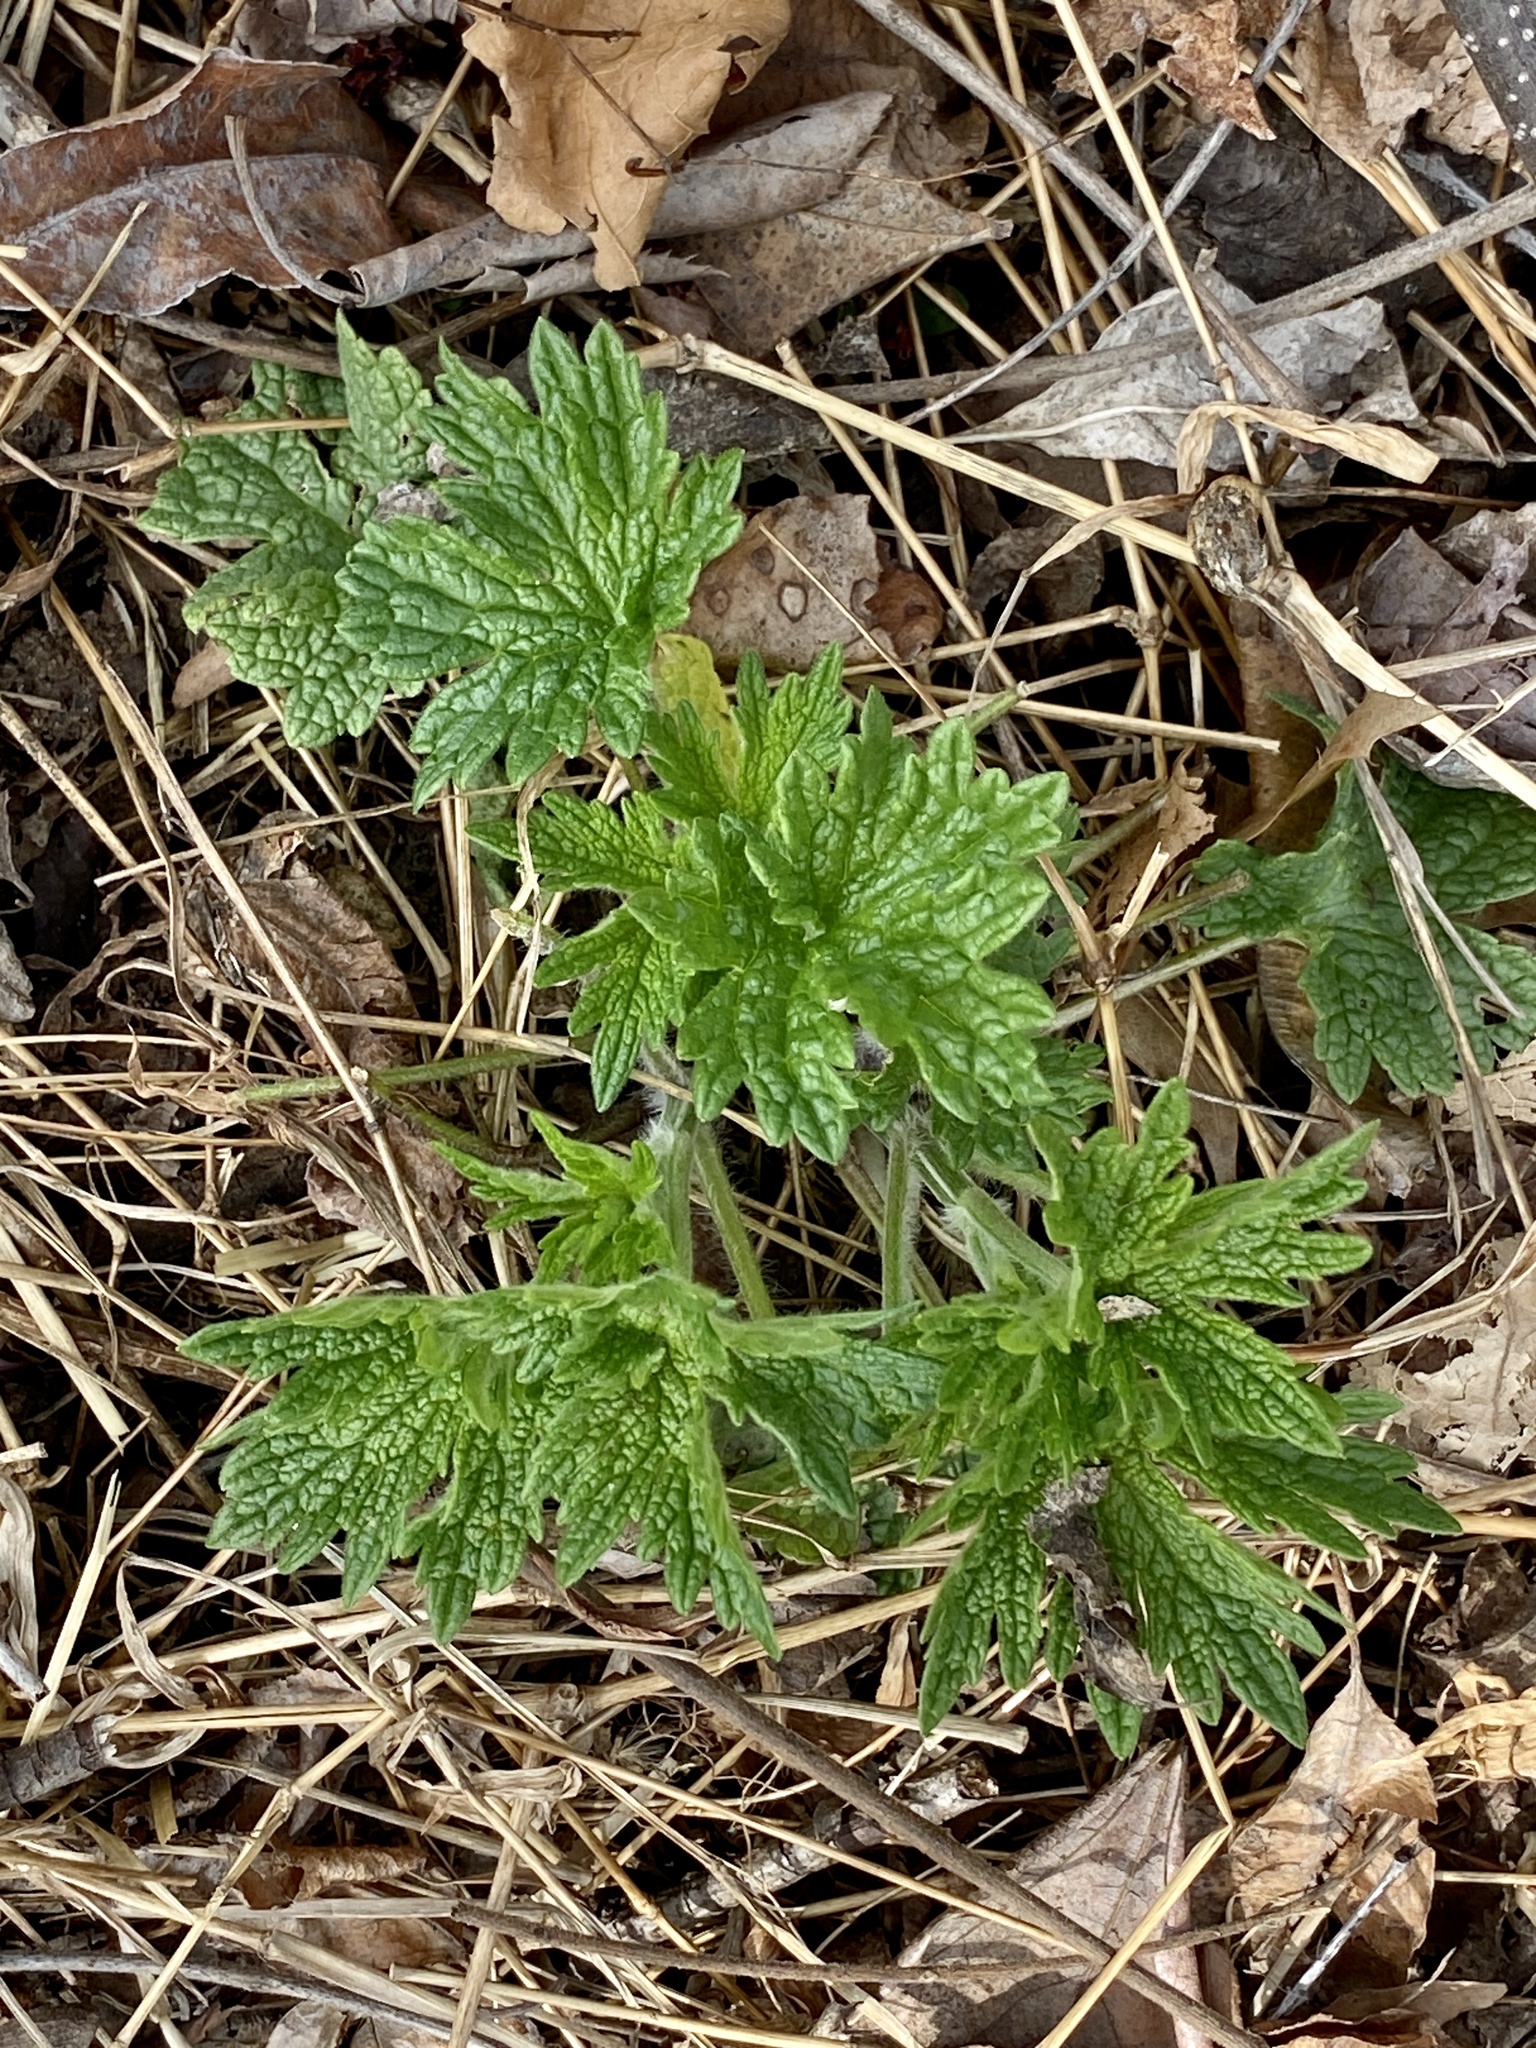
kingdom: Plantae
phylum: Tracheophyta
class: Magnoliopsida
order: Lamiales
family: Lamiaceae
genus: Leonurus
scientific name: Leonurus cardiaca
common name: Motherwort
